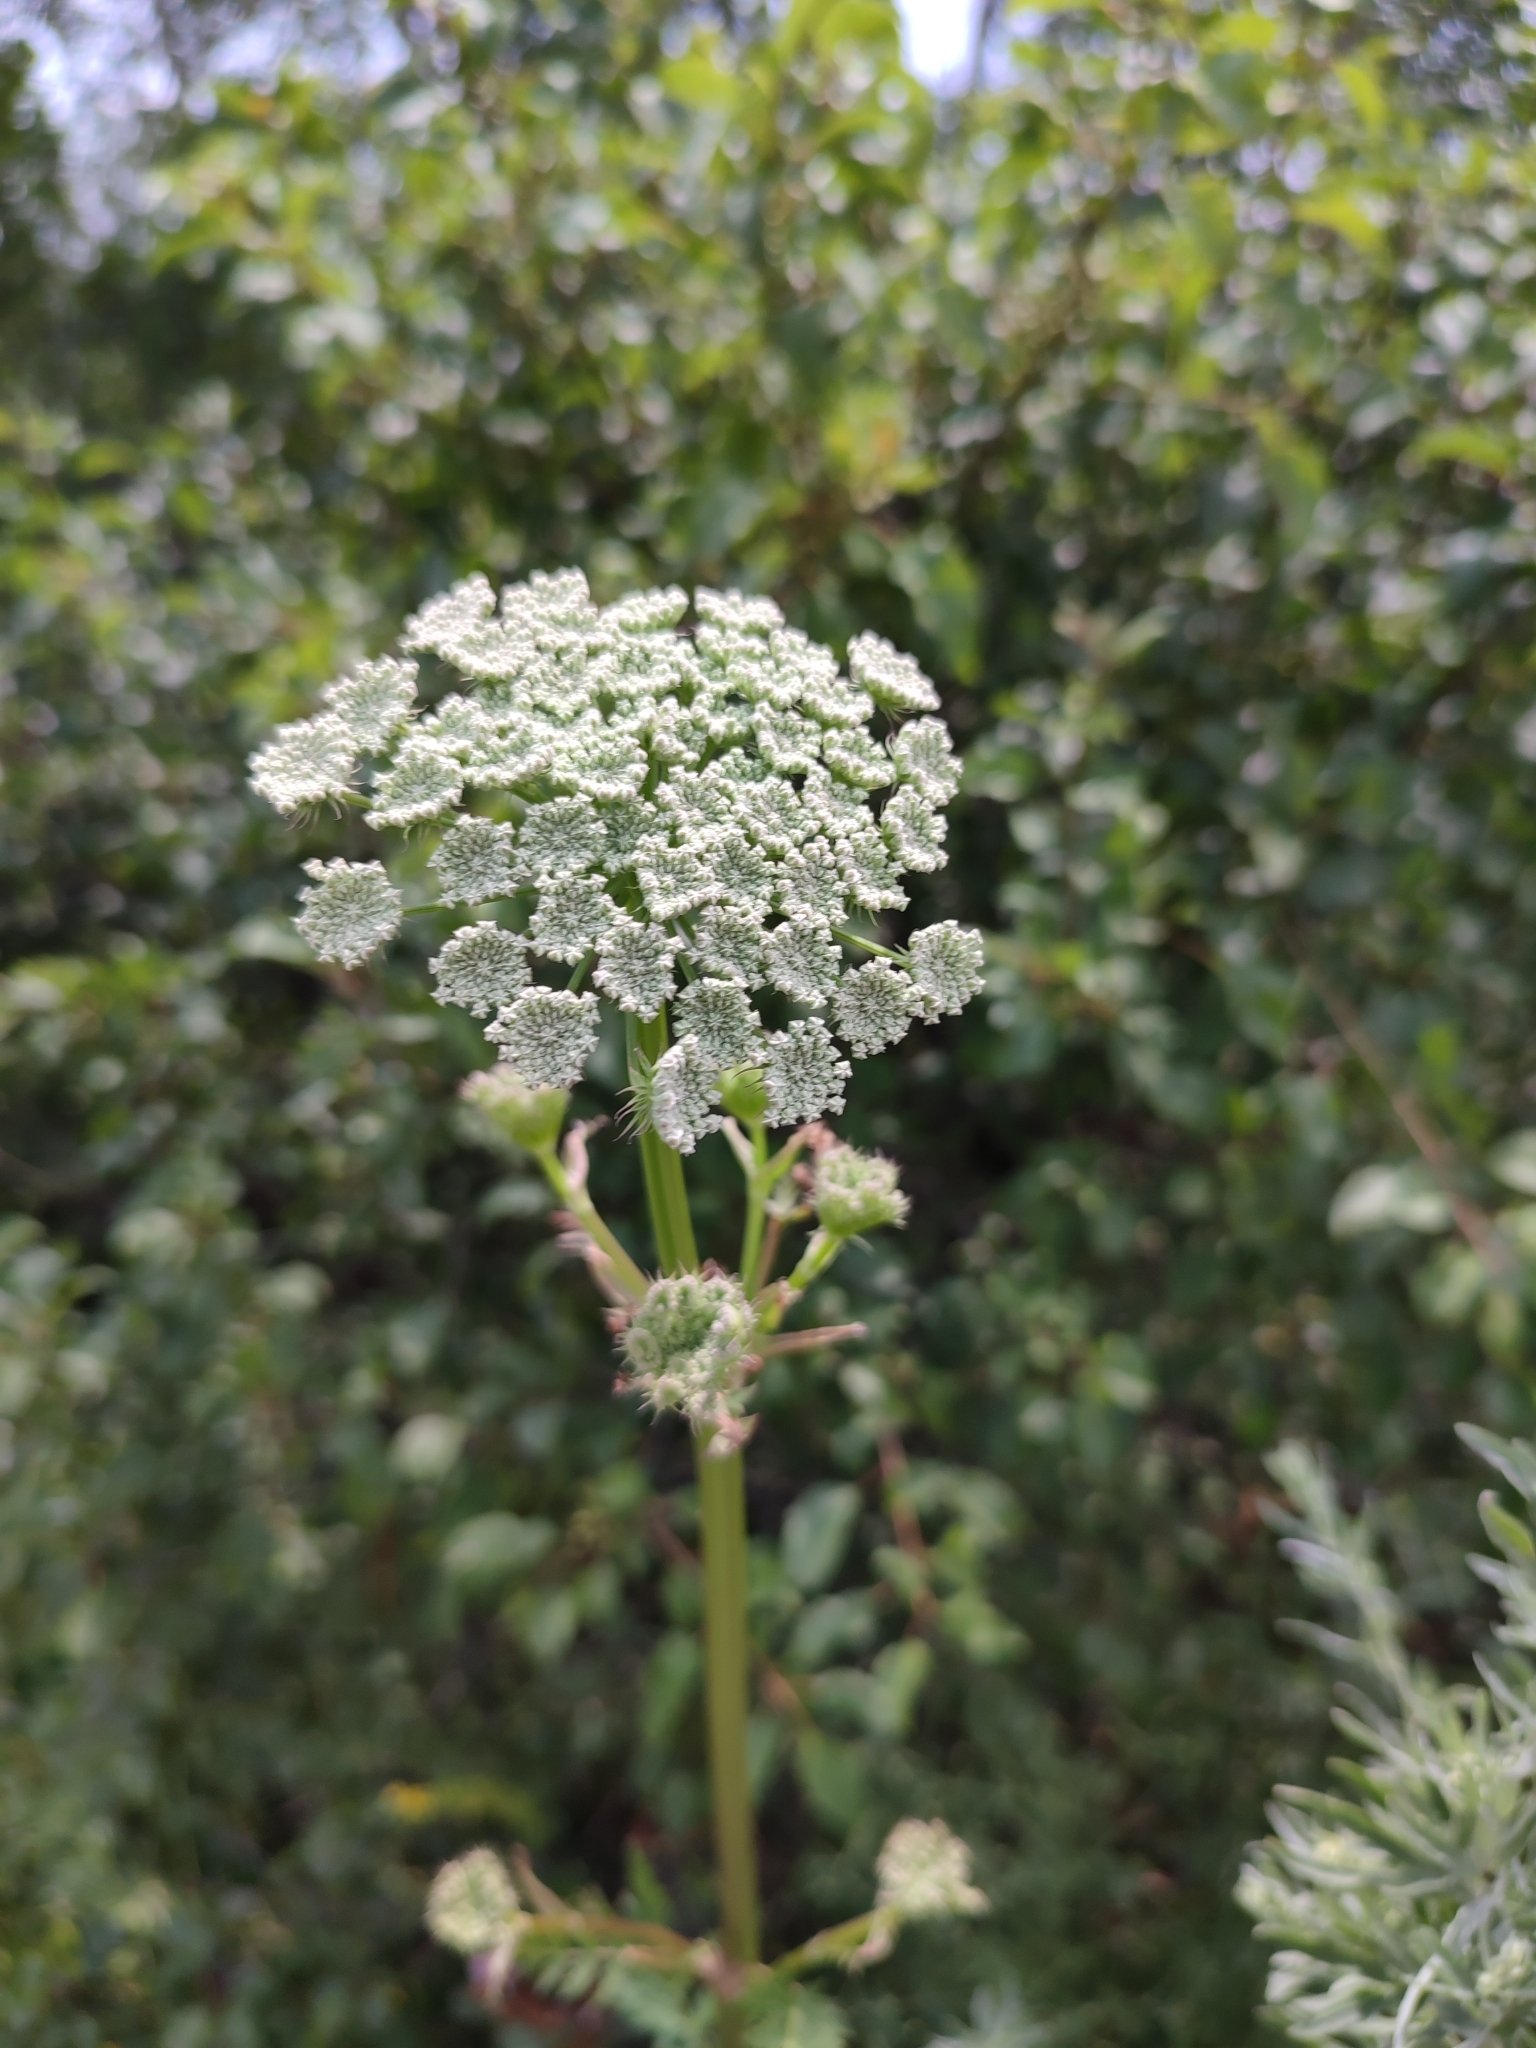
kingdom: Plantae
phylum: Tracheophyta
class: Magnoliopsida
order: Apiales
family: Apiaceae
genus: Seseli
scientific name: Seseli libanotis
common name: Mooncarrot
